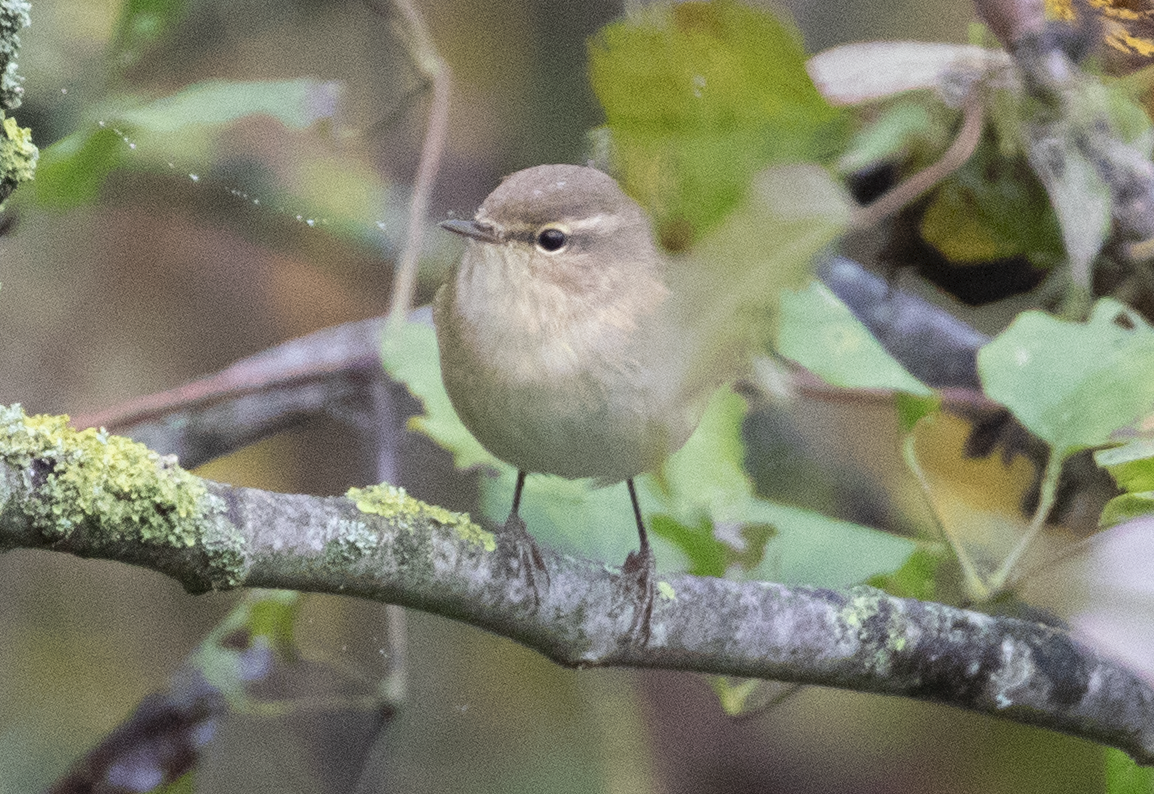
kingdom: Animalia
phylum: Chordata
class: Aves
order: Passeriformes
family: Phylloscopidae
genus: Phylloscopus
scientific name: Phylloscopus collybita
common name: Common chiffchaff
